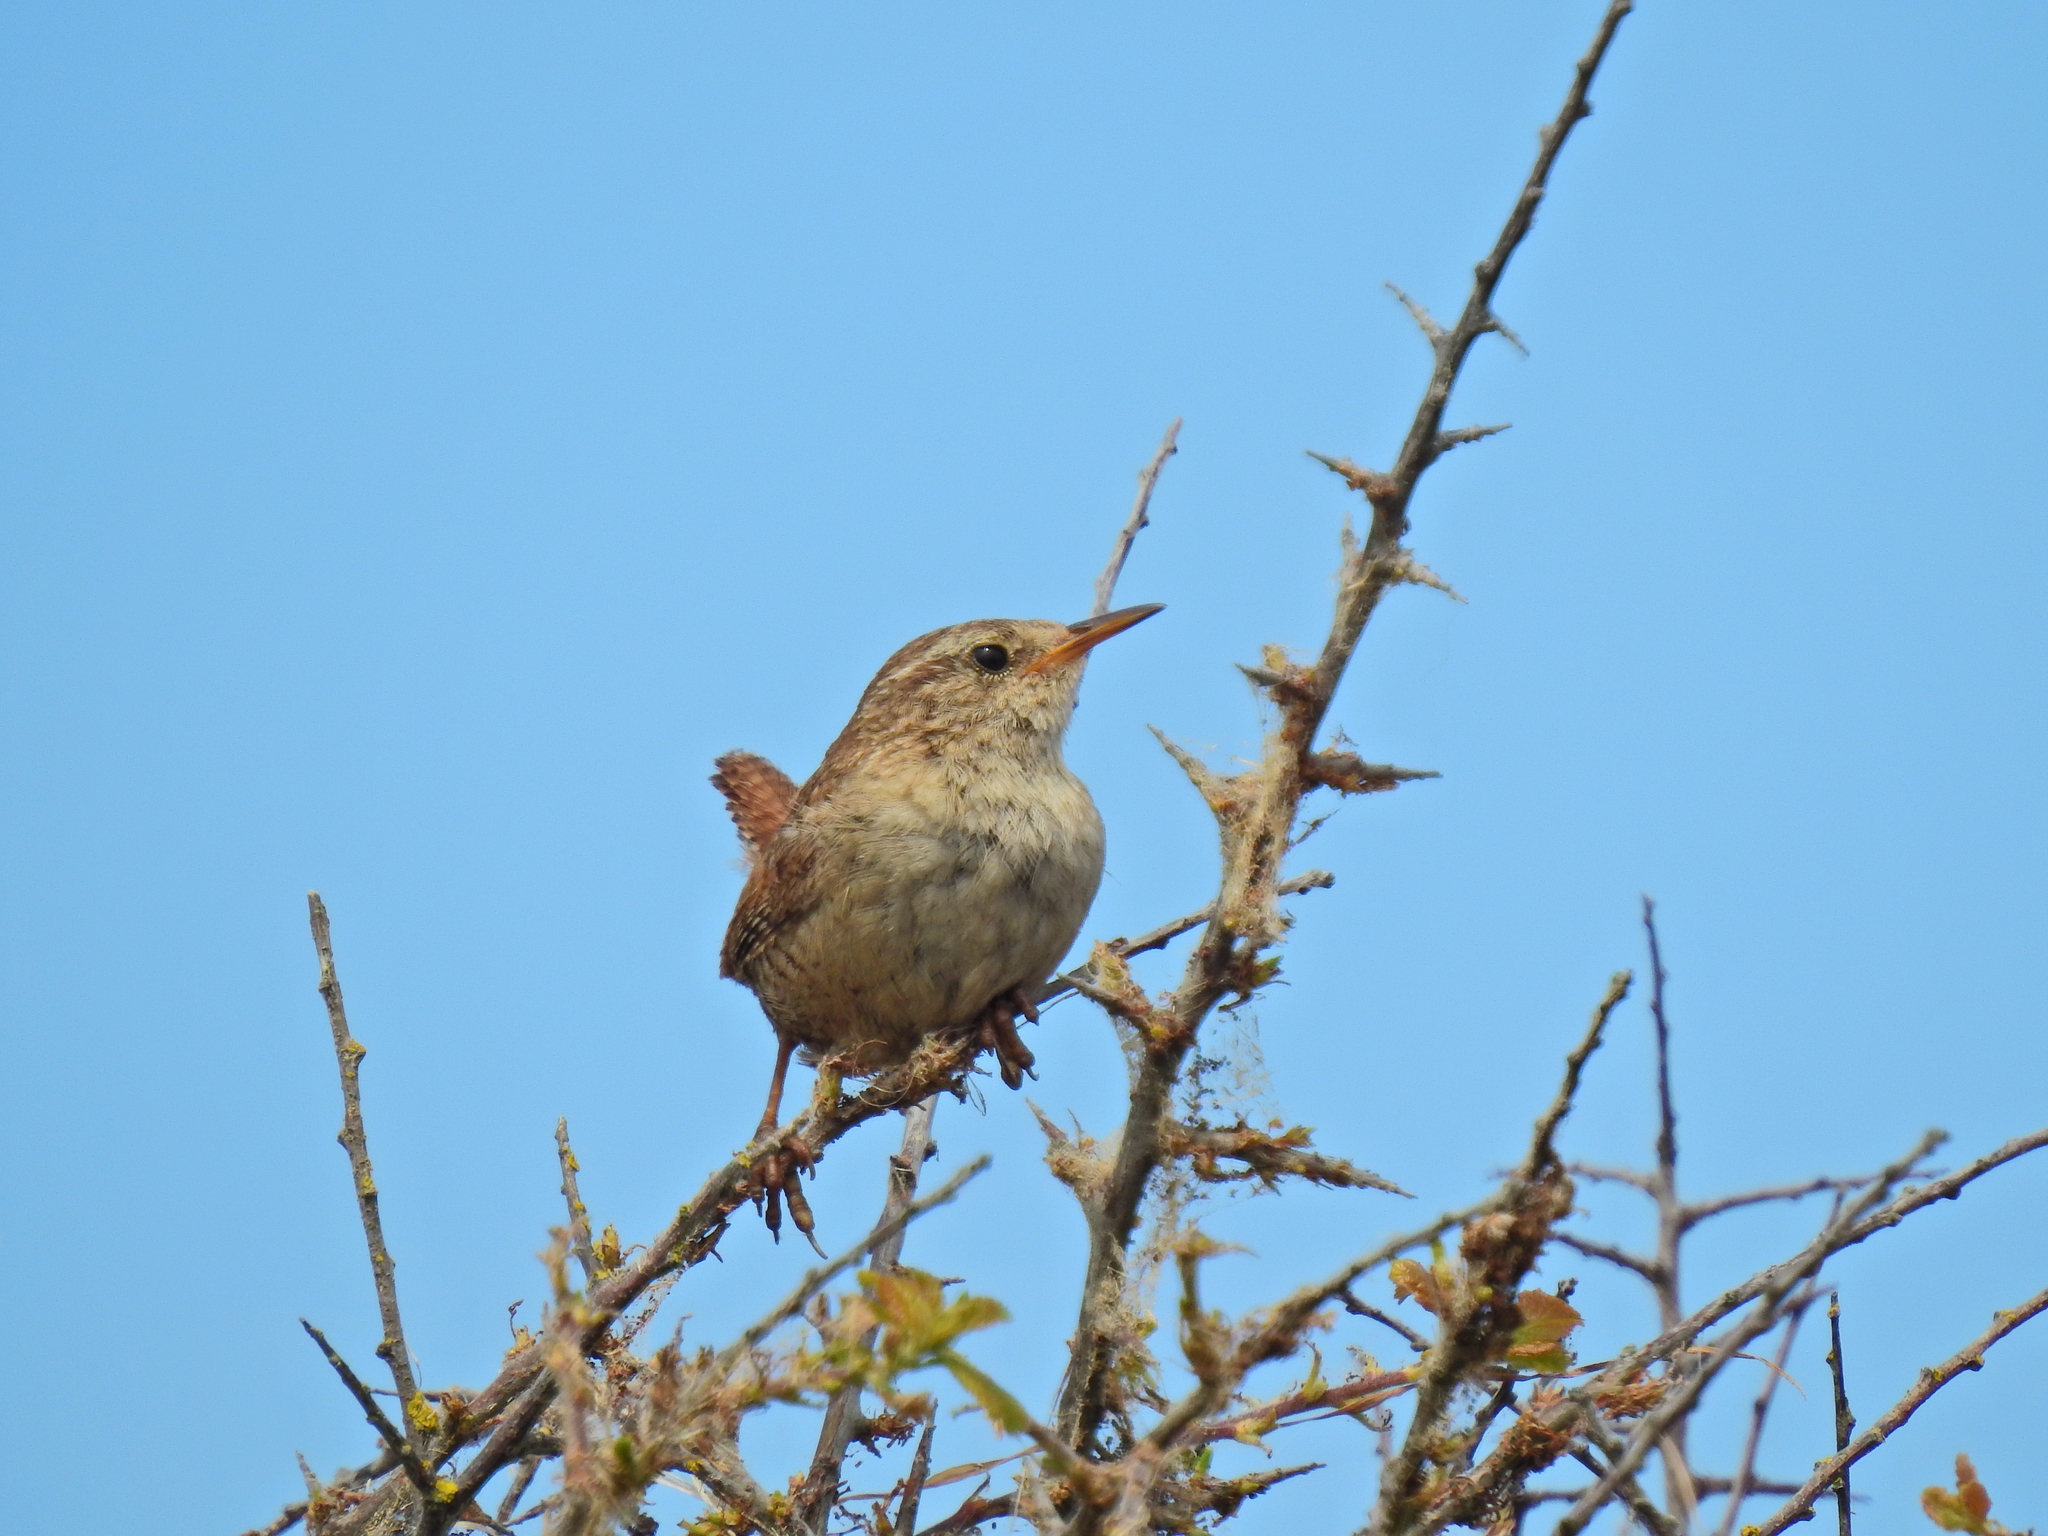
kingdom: Animalia
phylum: Chordata
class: Aves
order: Passeriformes
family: Troglodytidae
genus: Troglodytes
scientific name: Troglodytes troglodytes
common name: Eurasian wren
